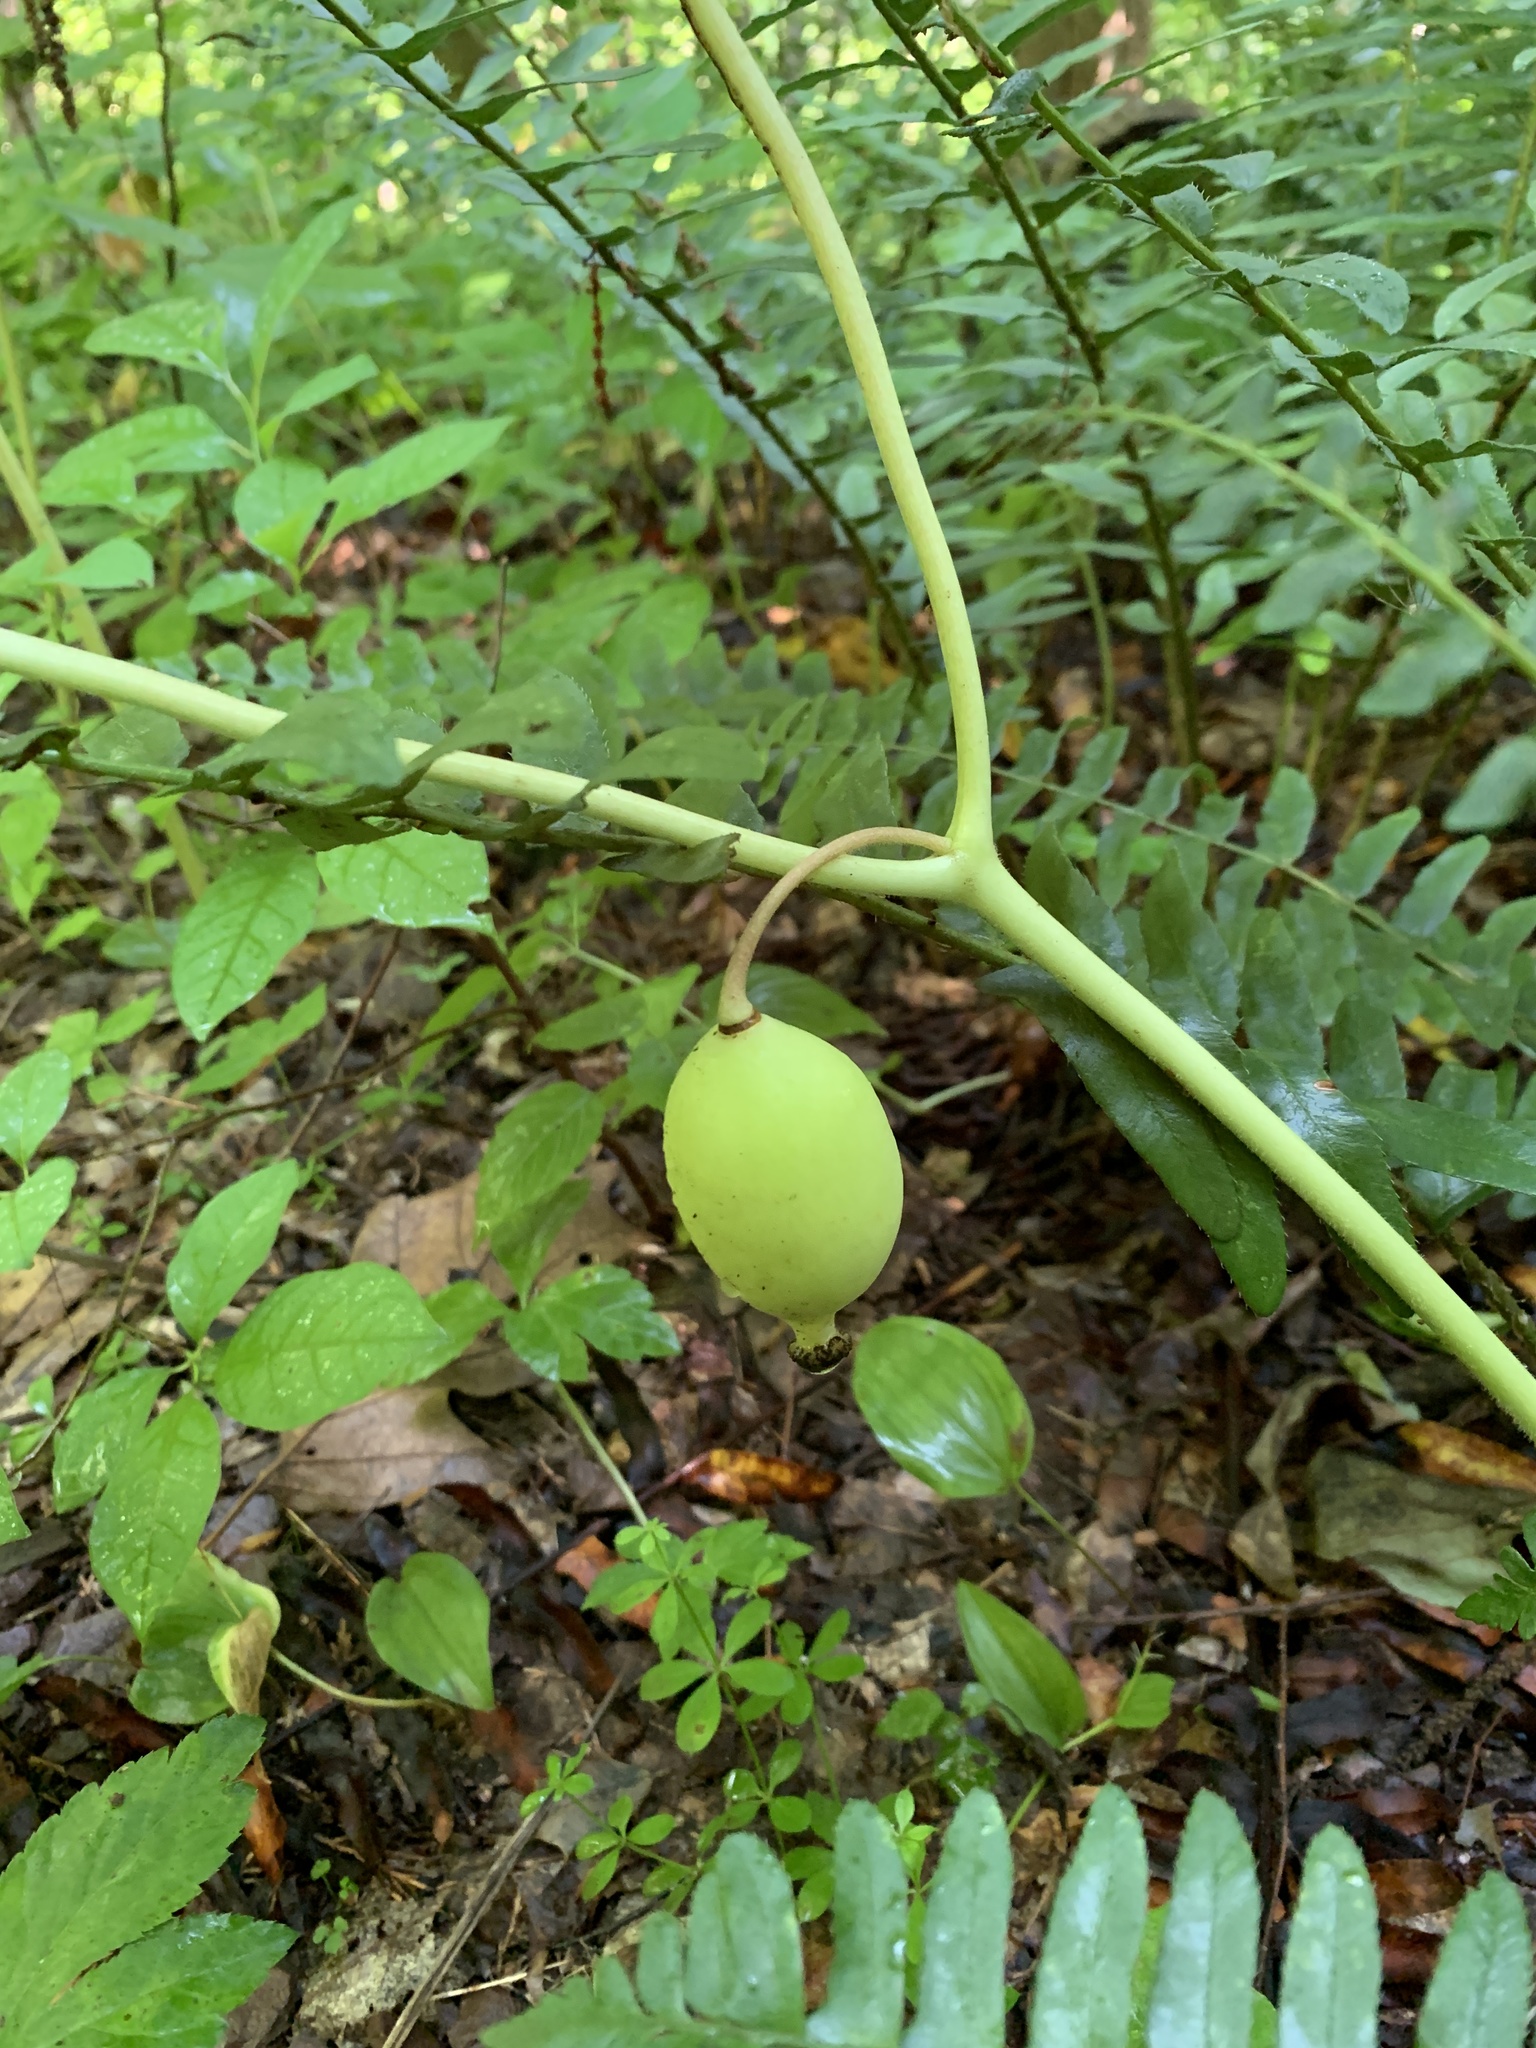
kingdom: Plantae
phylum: Tracheophyta
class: Magnoliopsida
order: Ranunculales
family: Berberidaceae
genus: Podophyllum
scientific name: Podophyllum peltatum
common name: Wild mandrake
